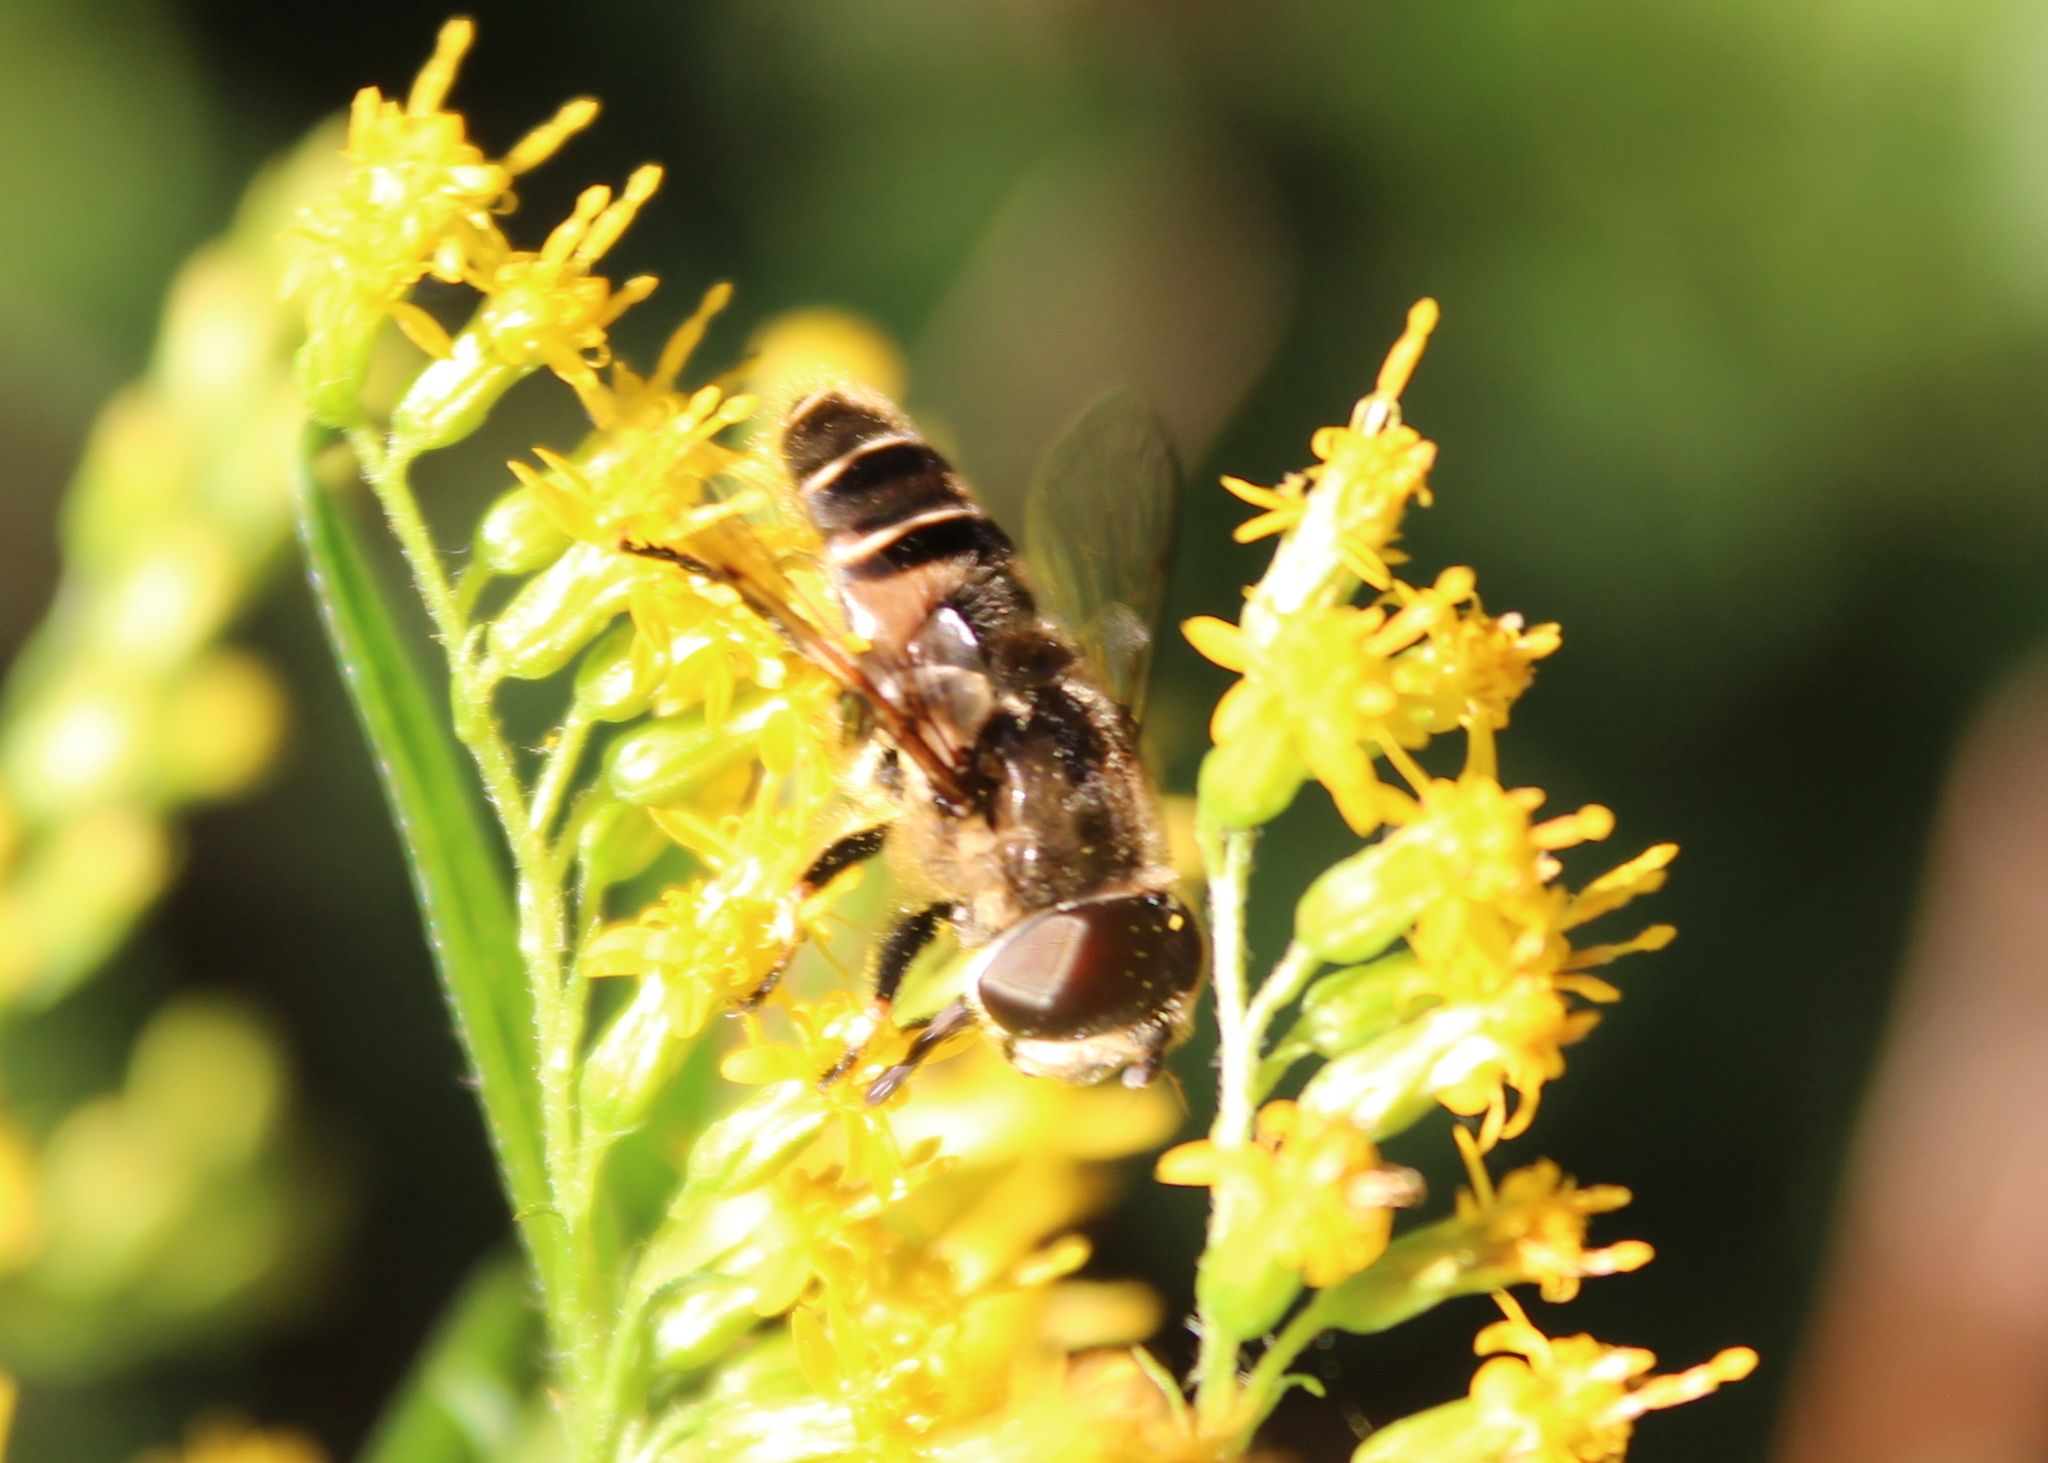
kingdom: Animalia
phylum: Arthropoda
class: Insecta
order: Diptera
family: Syrphidae
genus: Eristalis
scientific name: Eristalis dimidiata
